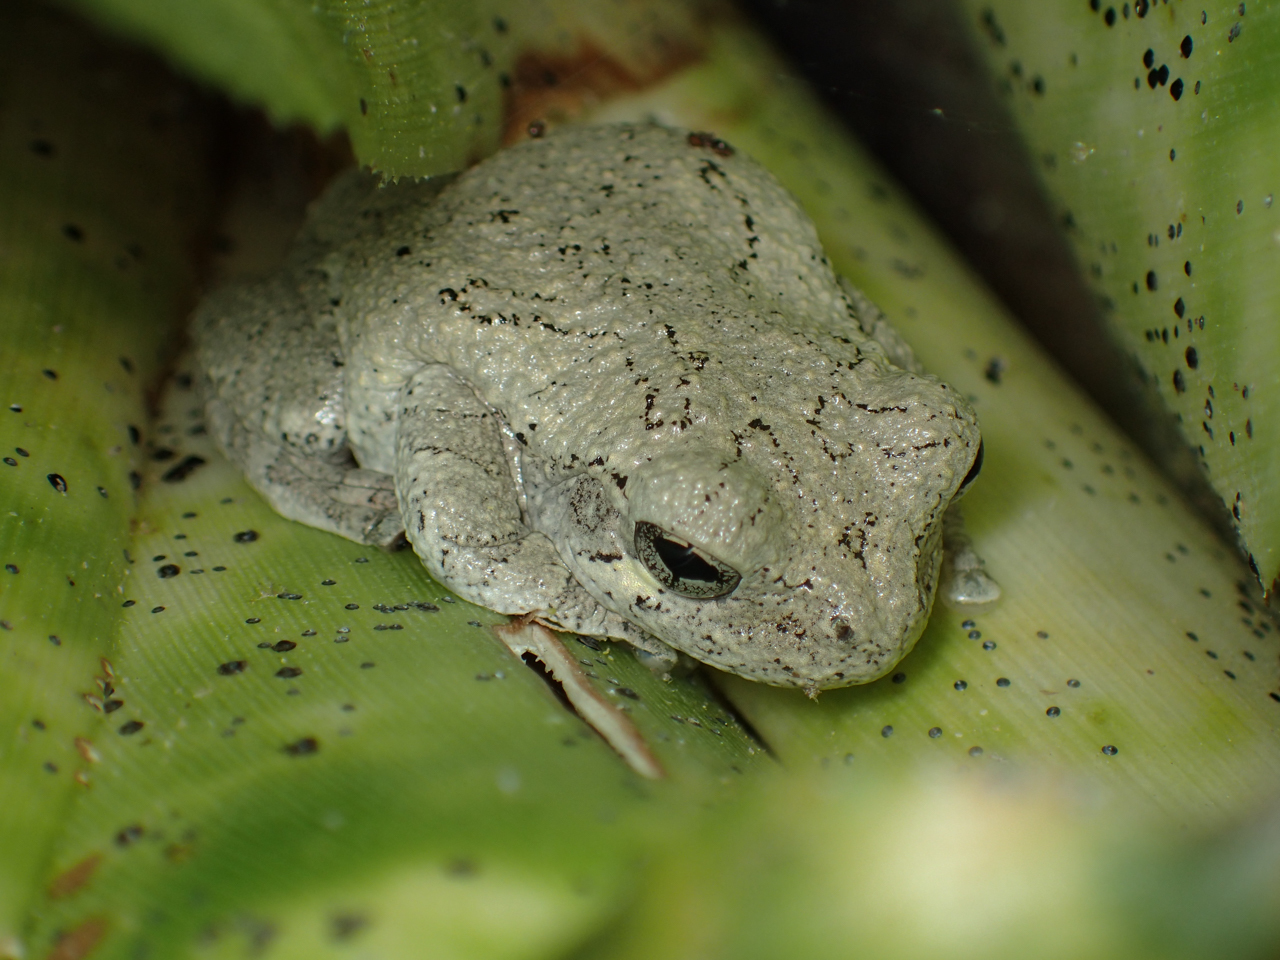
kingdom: Animalia
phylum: Chordata
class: Amphibia
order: Anura
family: Hylidae
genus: Dryophytes
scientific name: Dryophytes chrysoscelis
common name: Cope's gray treefrog
